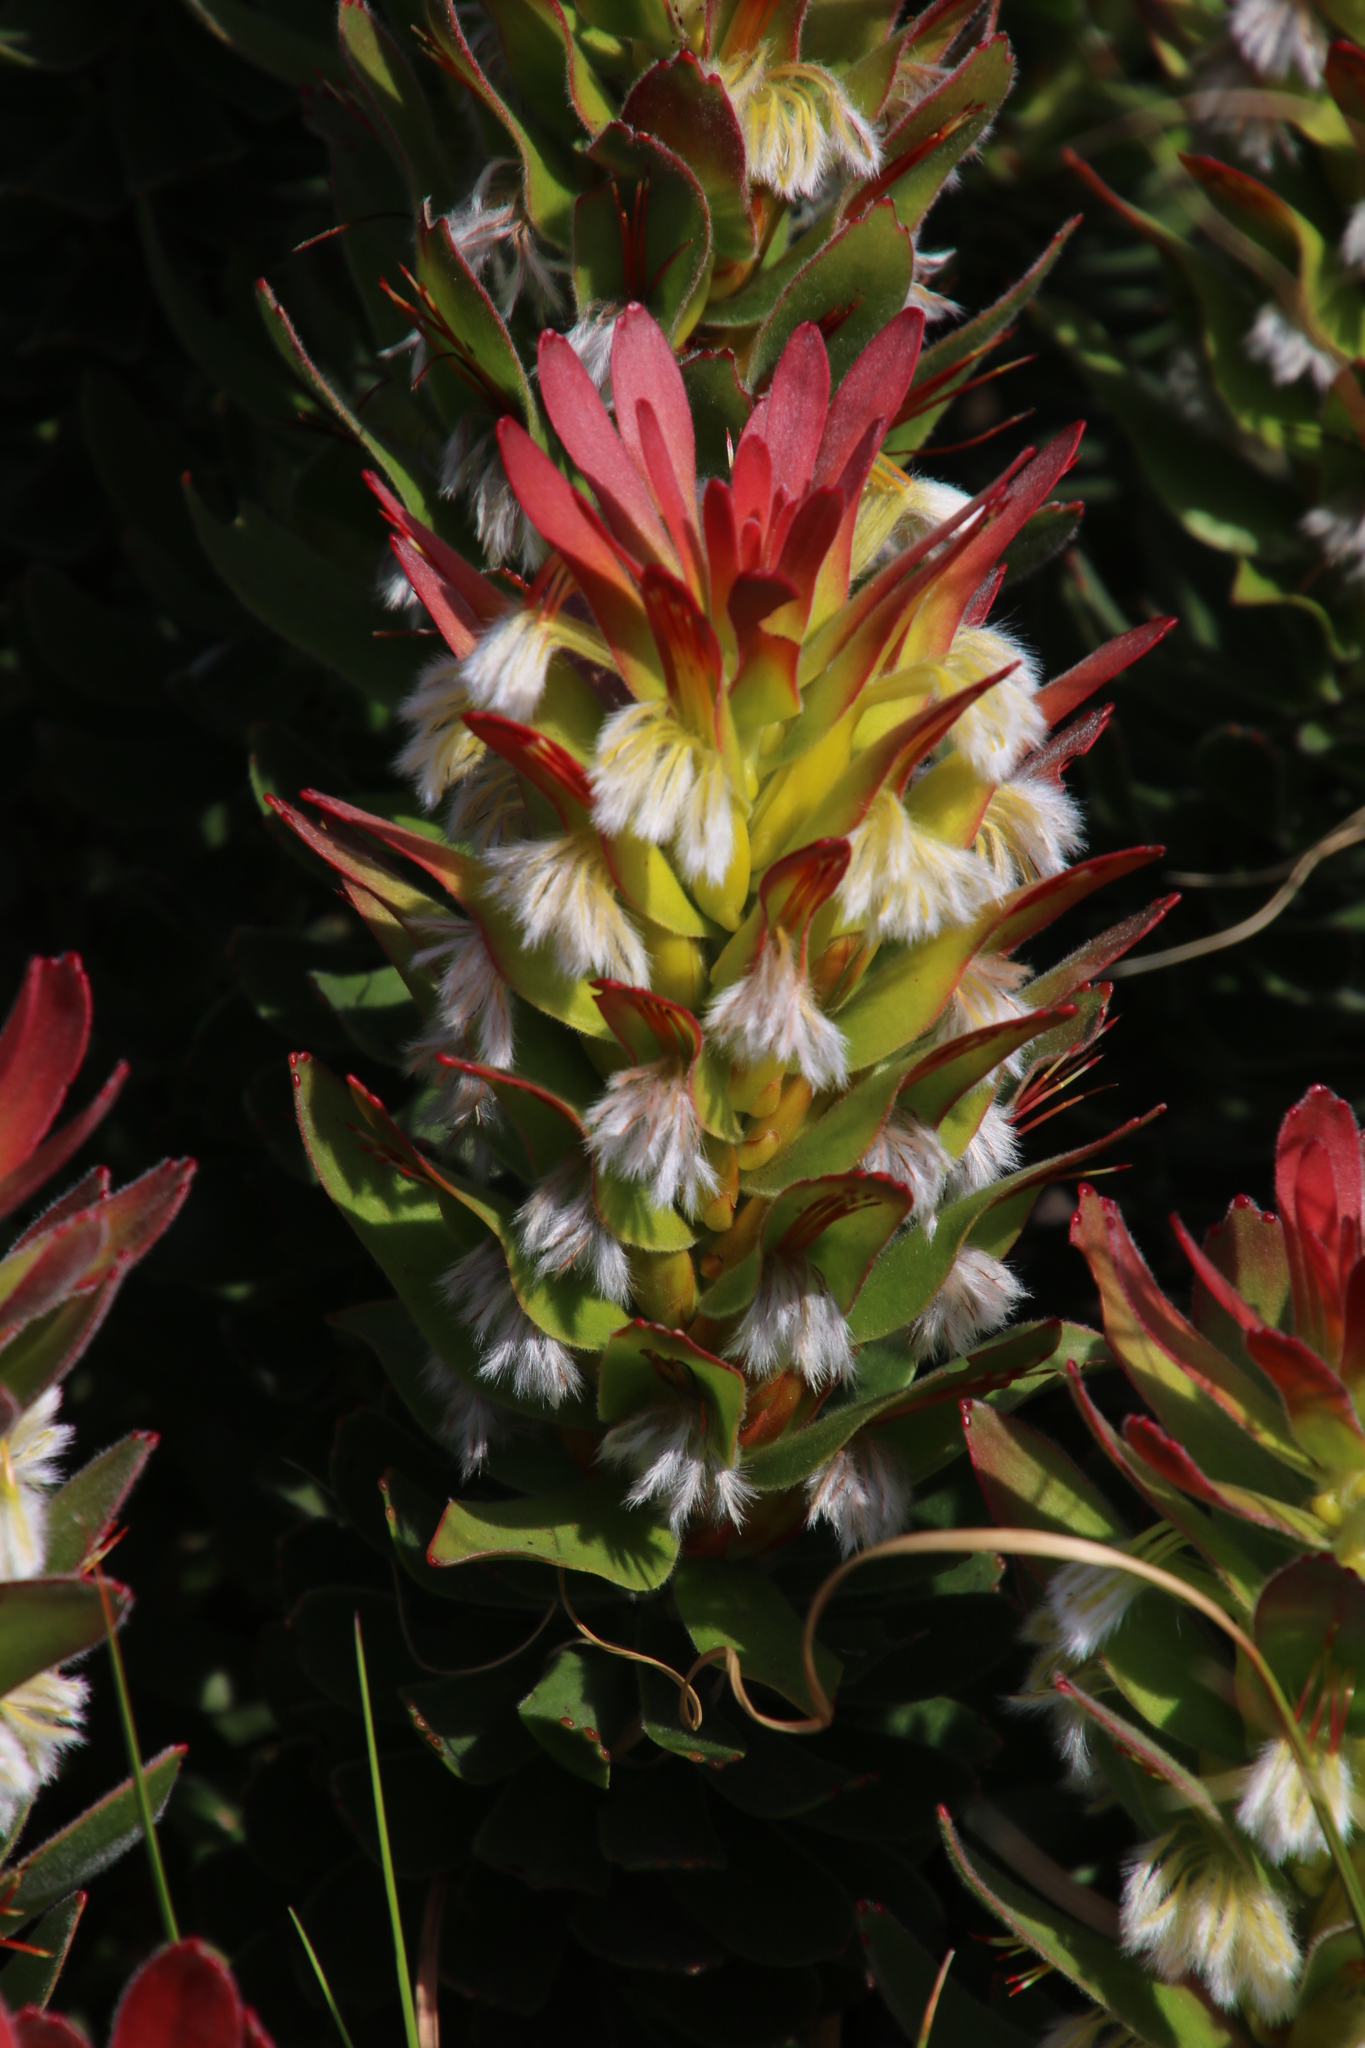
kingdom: Plantae
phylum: Tracheophyta
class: Magnoliopsida
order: Proteales
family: Proteaceae
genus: Mimetes
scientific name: Mimetes cucullatus
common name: Common pagoda
